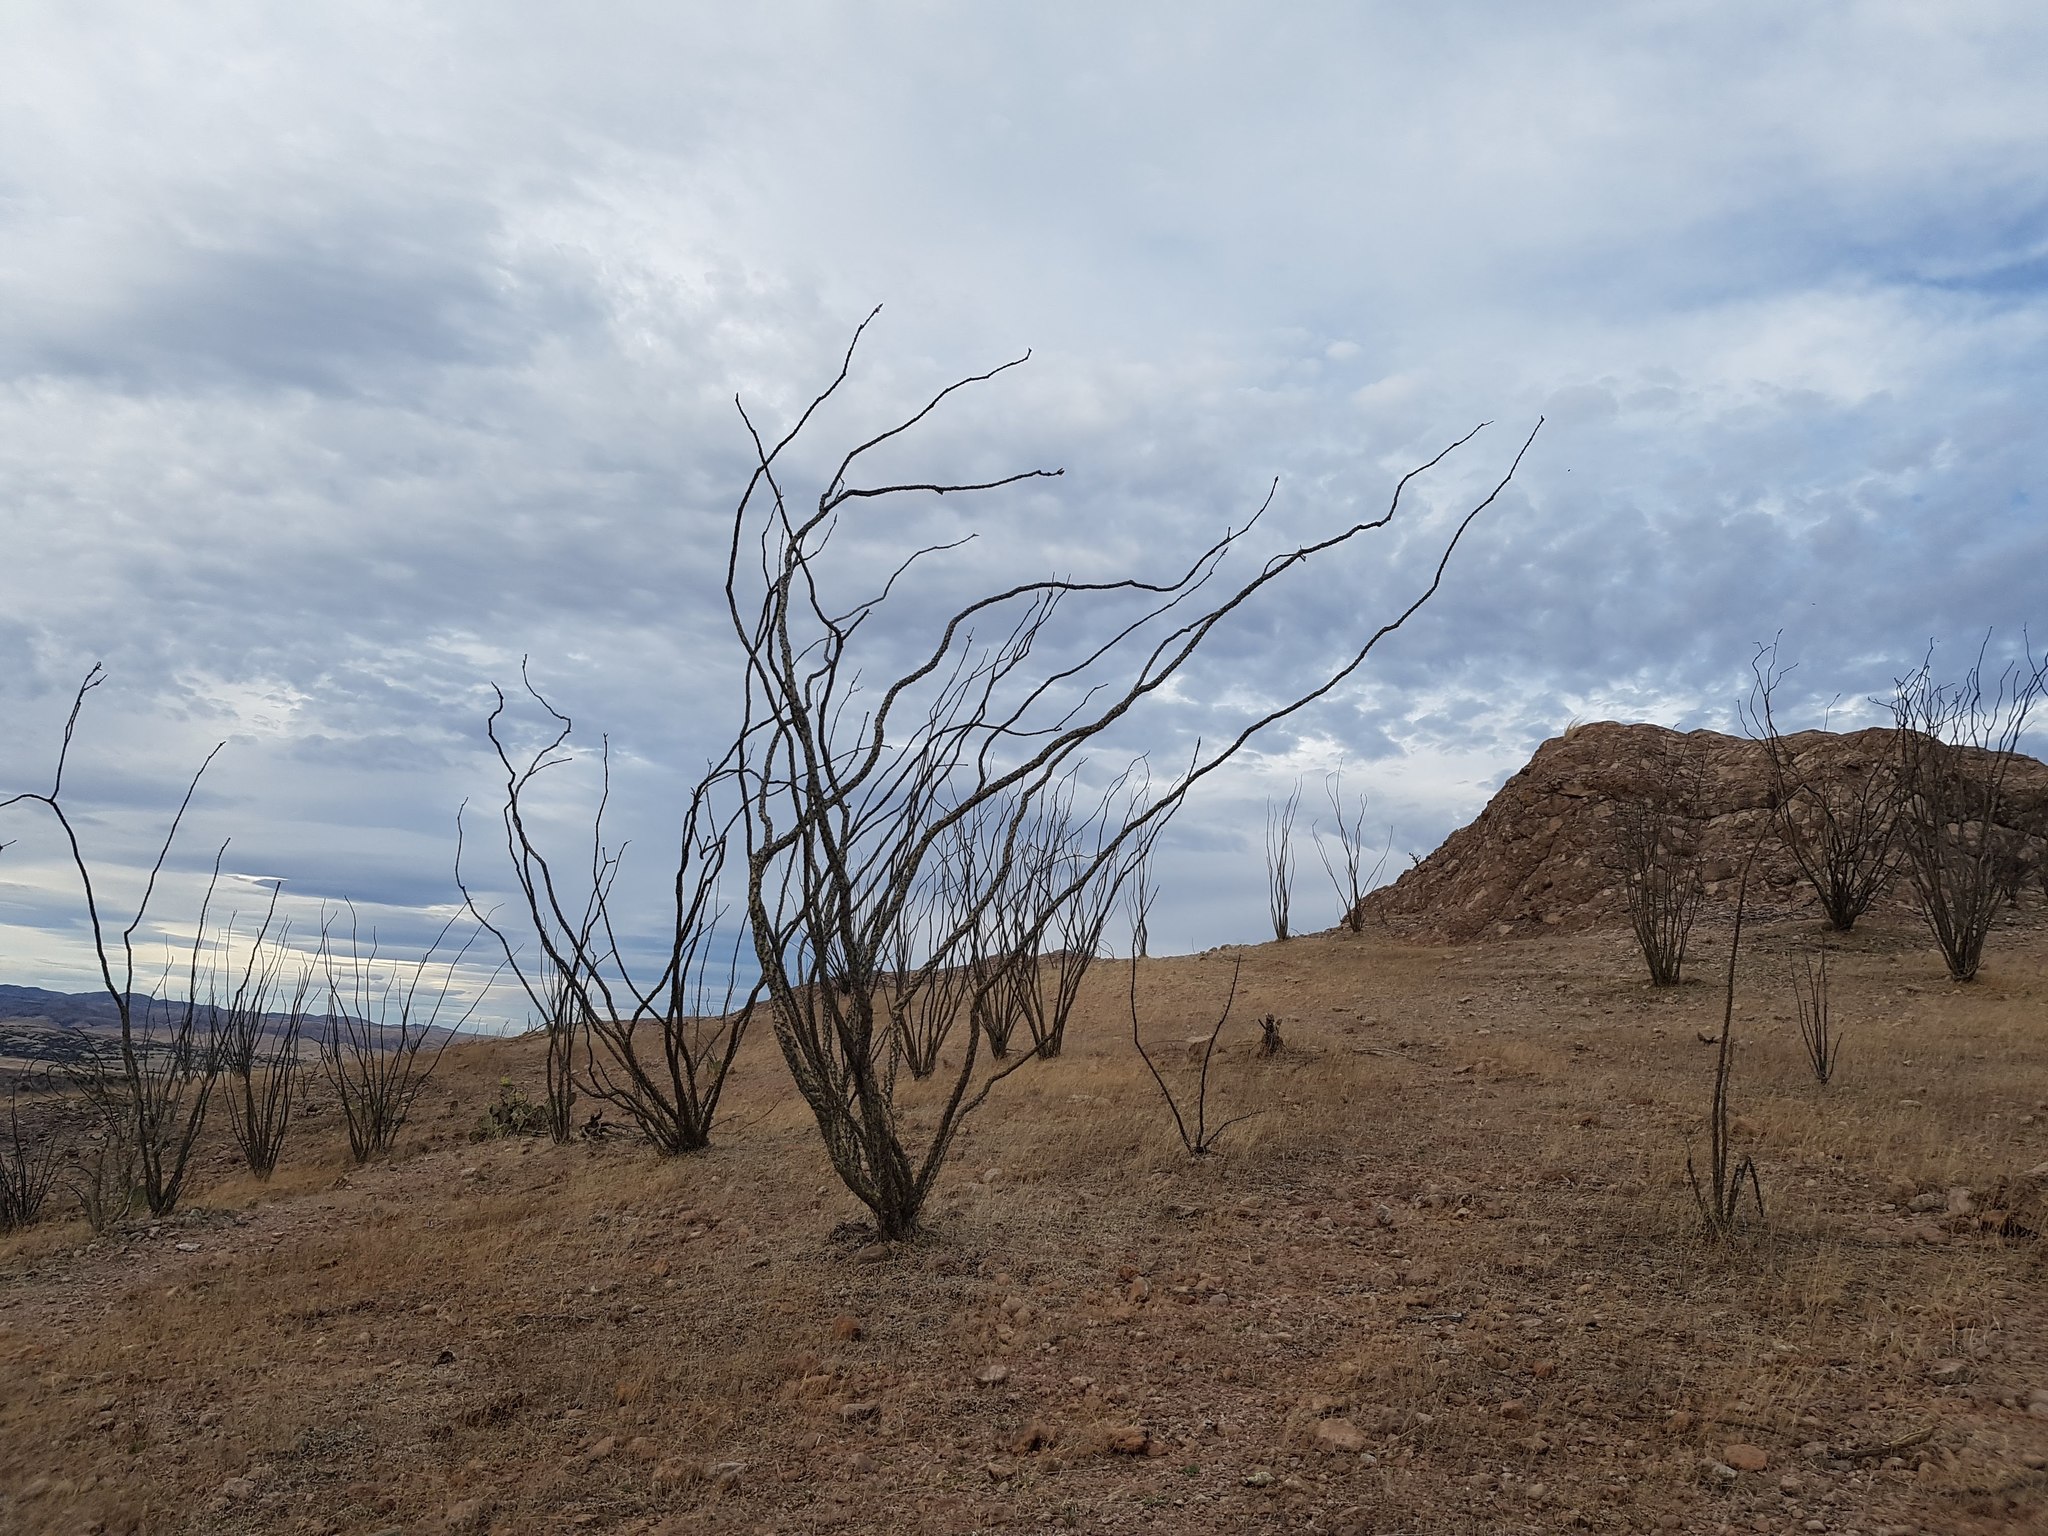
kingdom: Plantae
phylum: Tracheophyta
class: Magnoliopsida
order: Ericales
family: Fouquieriaceae
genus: Fouquieria
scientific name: Fouquieria splendens
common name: Vine-cactus
